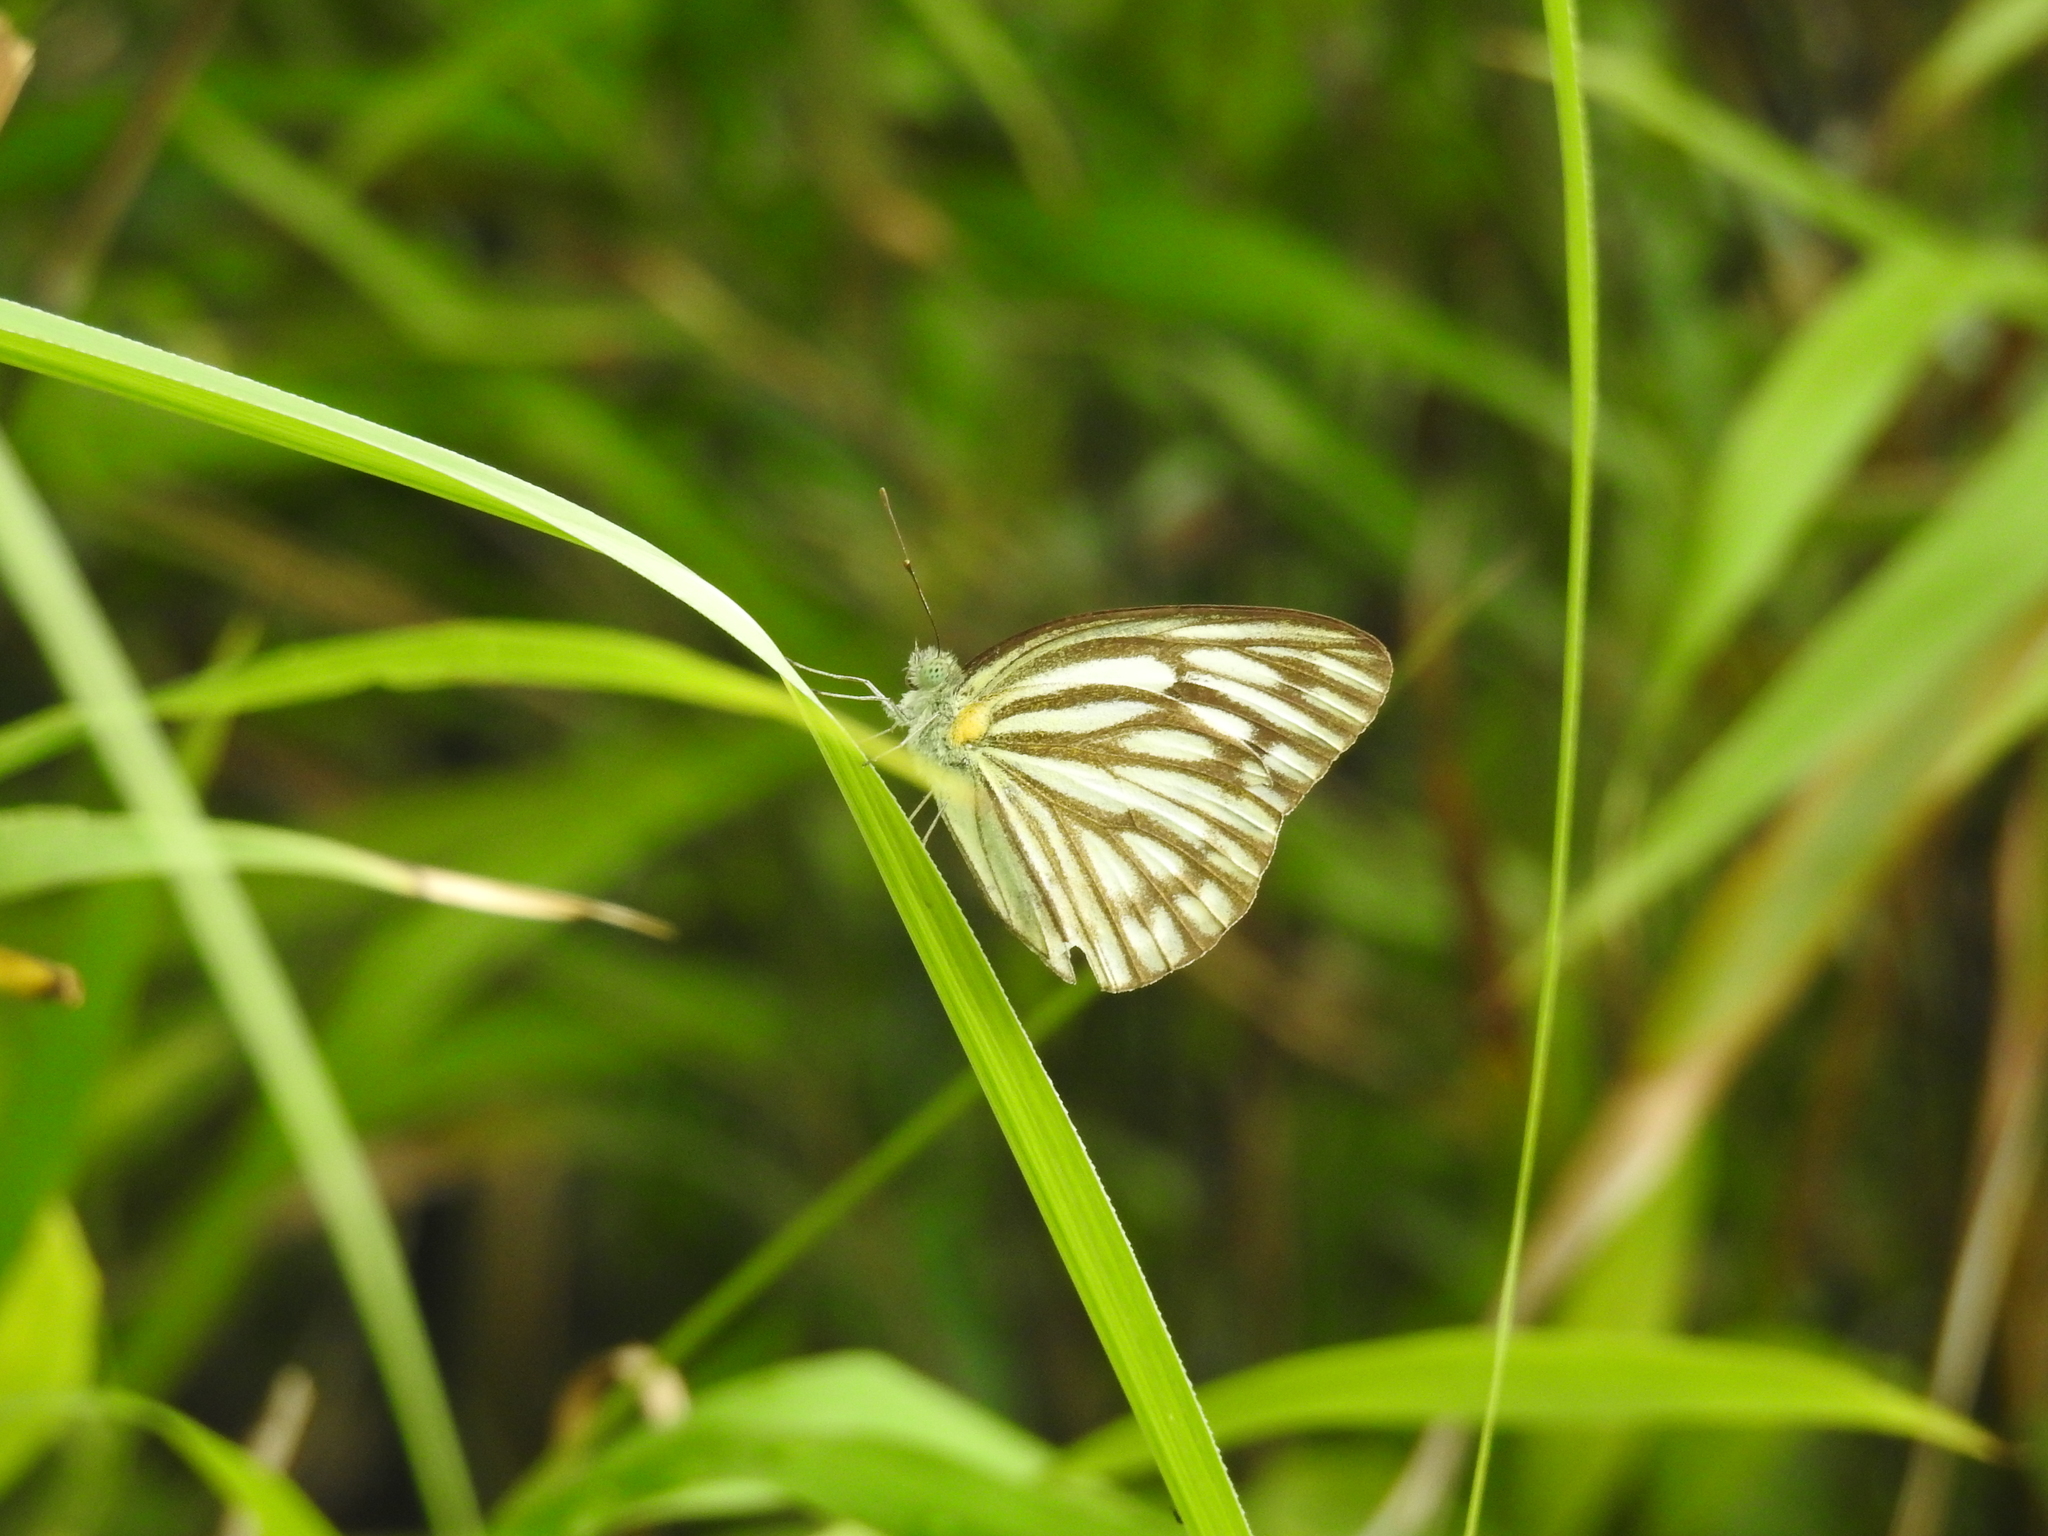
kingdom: Animalia
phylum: Arthropoda
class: Insecta
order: Lepidoptera
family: Pieridae
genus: Cepora
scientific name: Cepora nerissa
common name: Common gull
